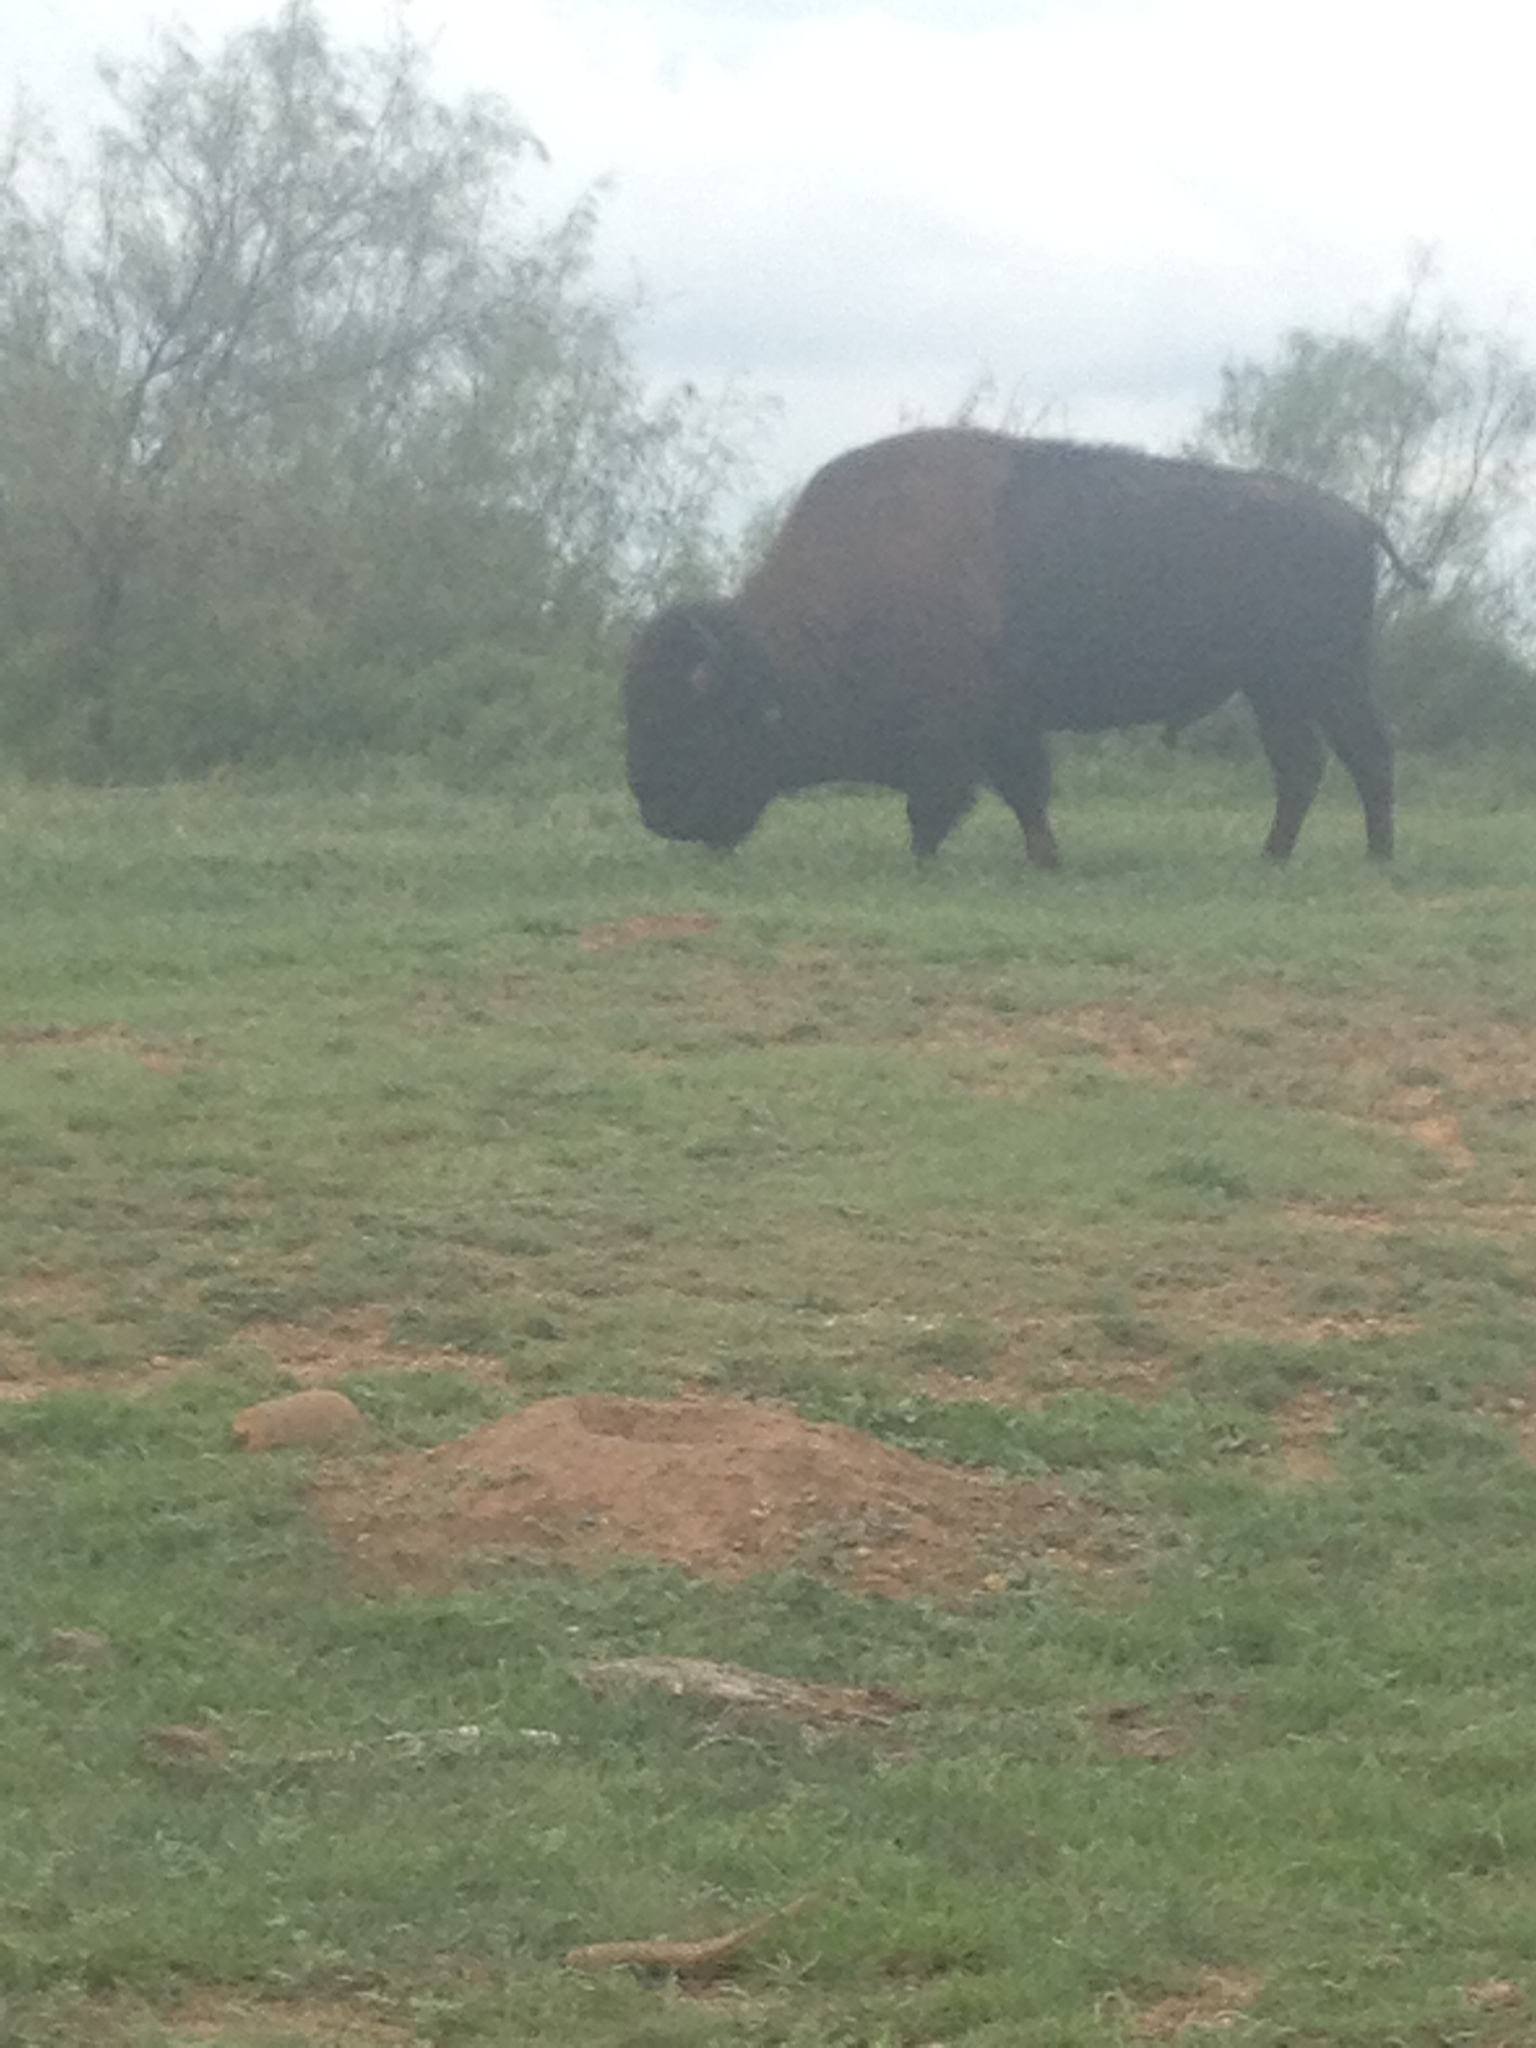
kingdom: Animalia
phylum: Chordata
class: Mammalia
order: Artiodactyla
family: Bovidae
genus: Bison
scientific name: Bison bison
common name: American bison
